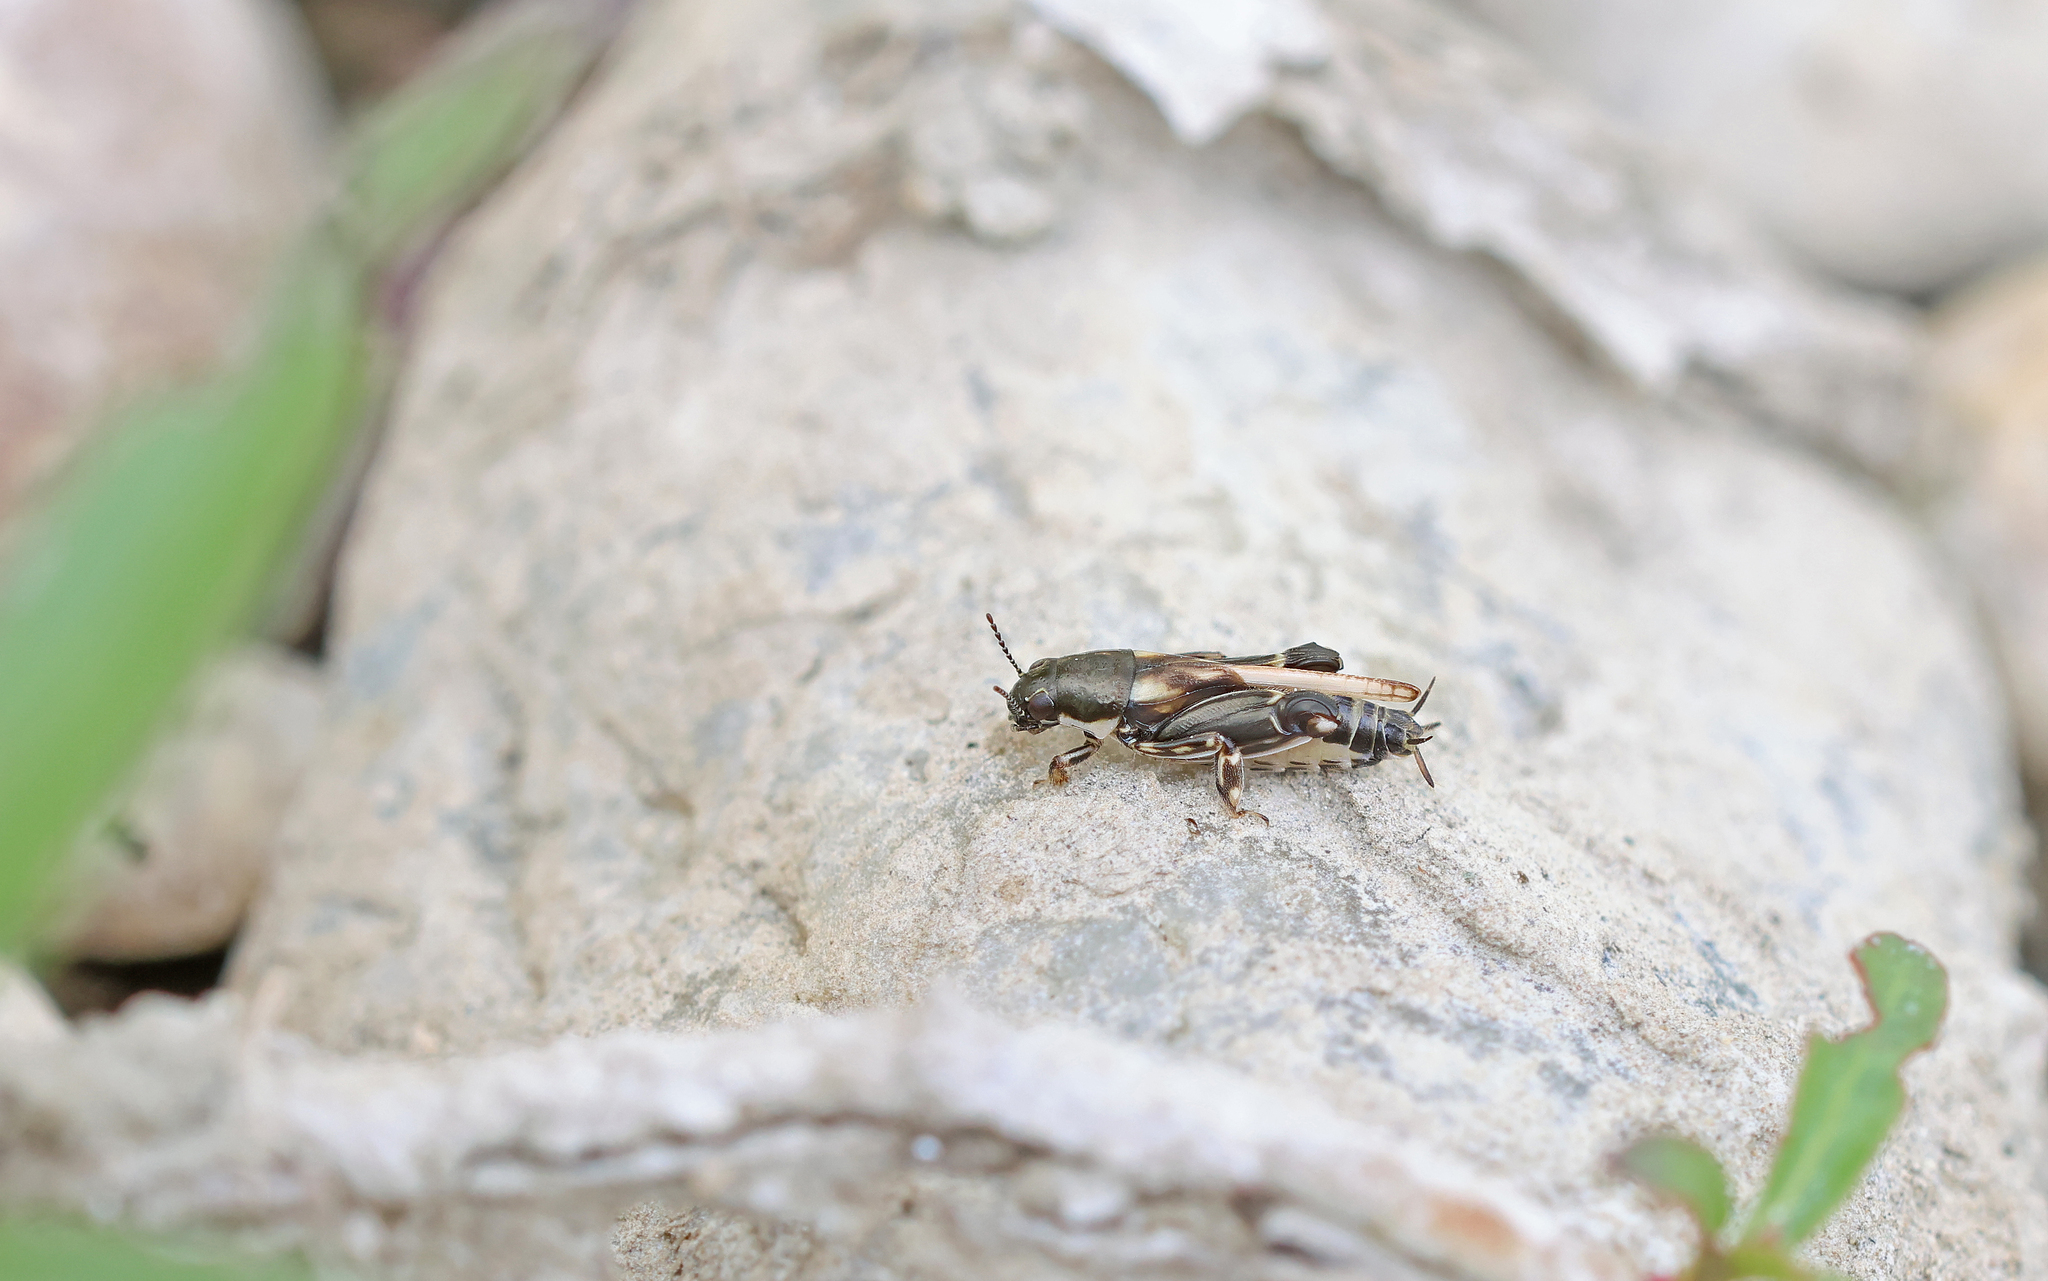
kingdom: Animalia
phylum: Arthropoda
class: Insecta
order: Orthoptera
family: Tridactylidae
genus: Xya
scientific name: Xya variegata
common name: Le tridactyle panaché
